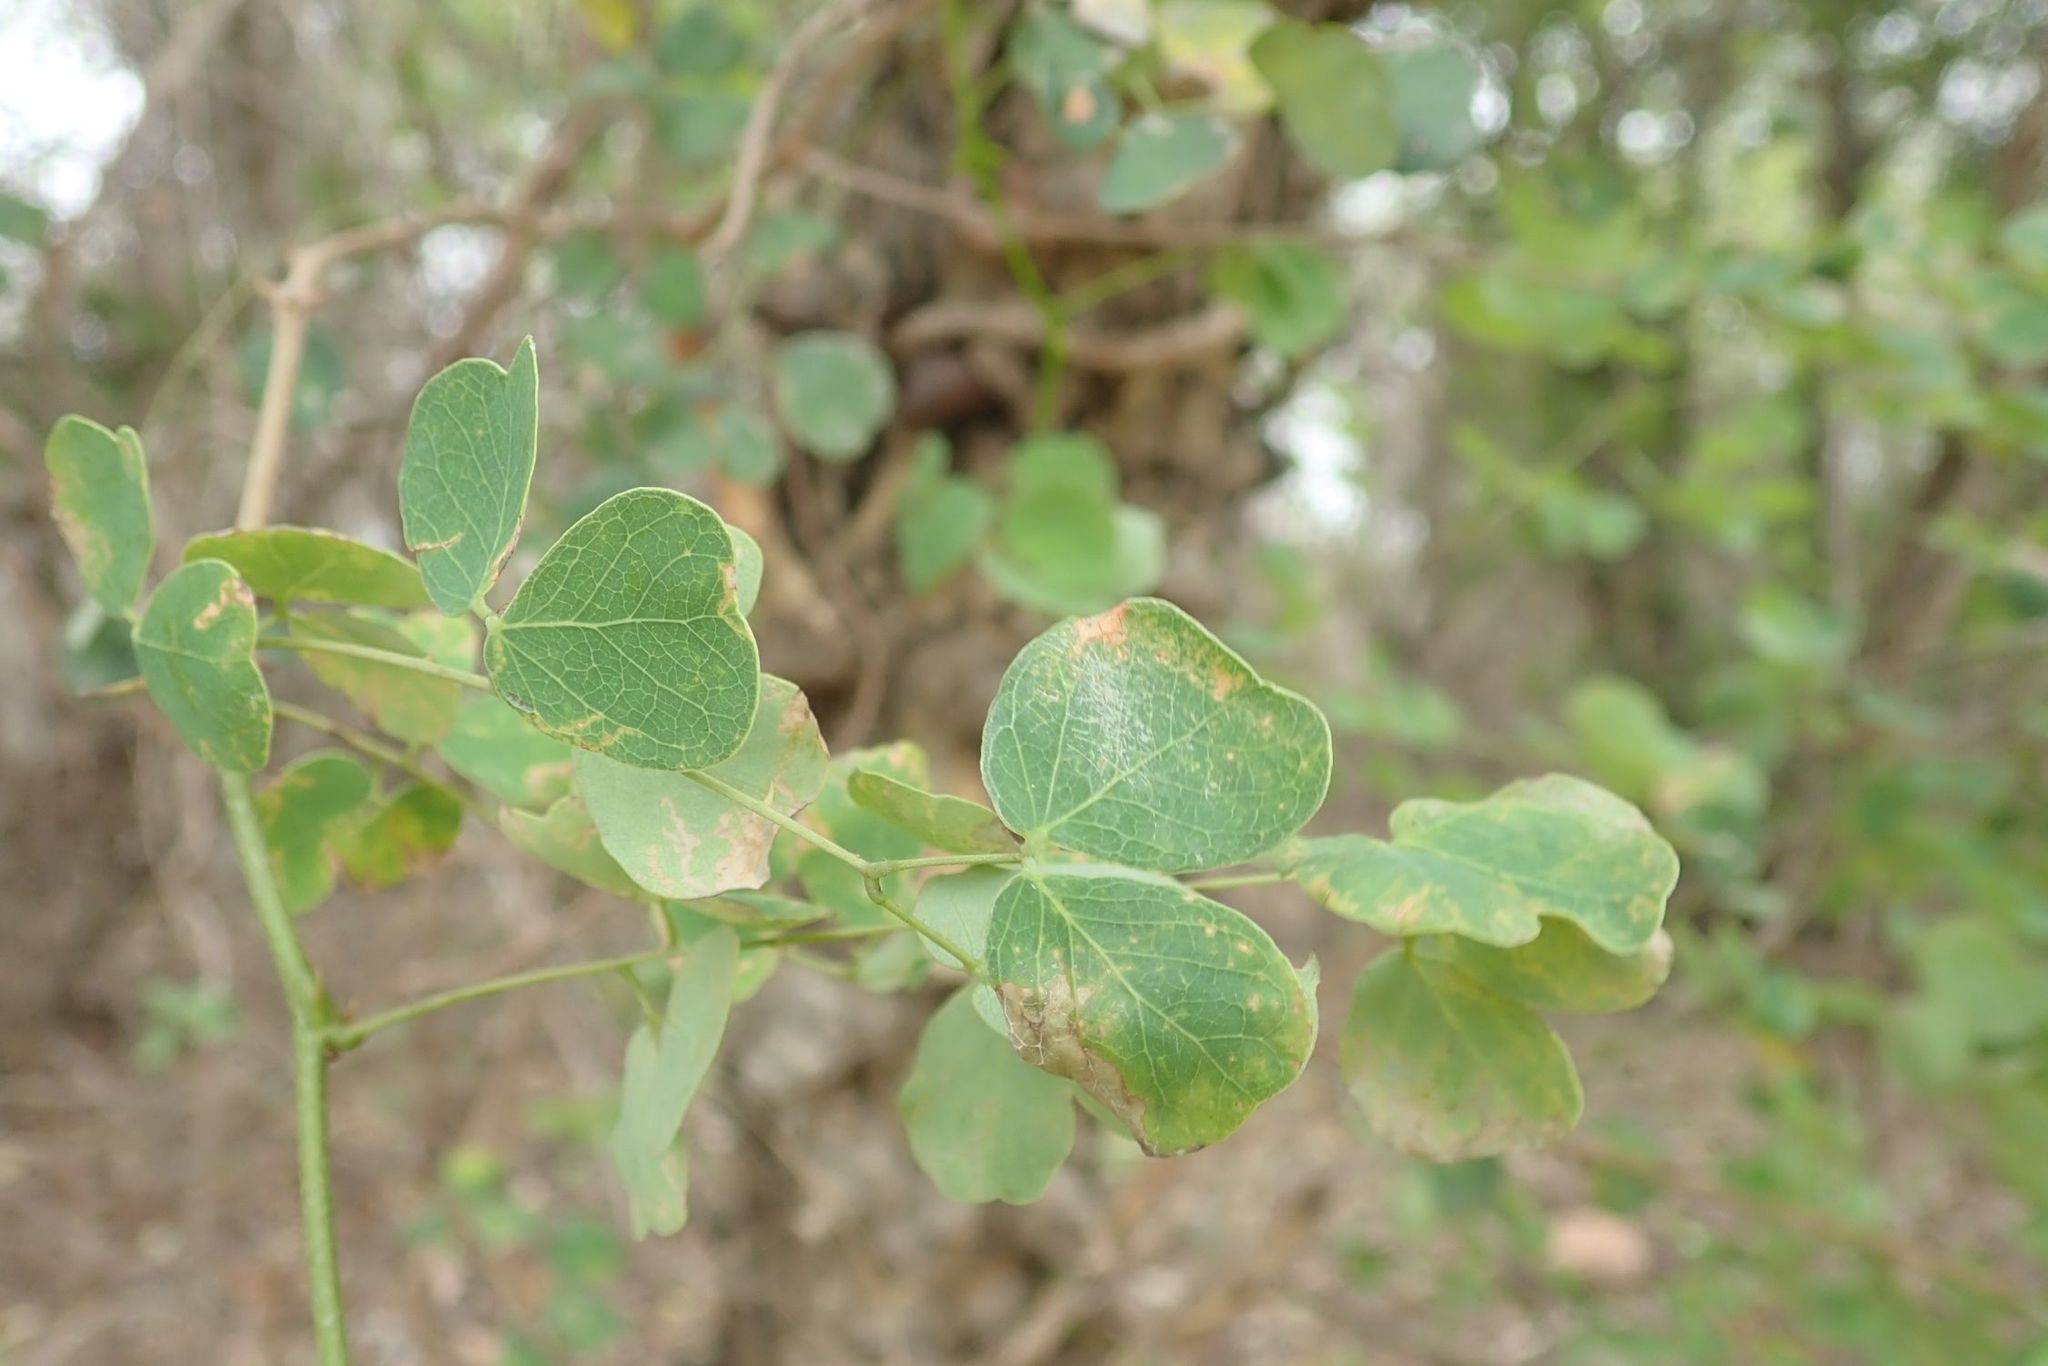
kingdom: Plantae
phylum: Tracheophyta
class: Magnoliopsida
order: Fabales
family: Fabaceae
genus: Senegalia
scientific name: Senegalia nigrescens
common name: Knobthorn
